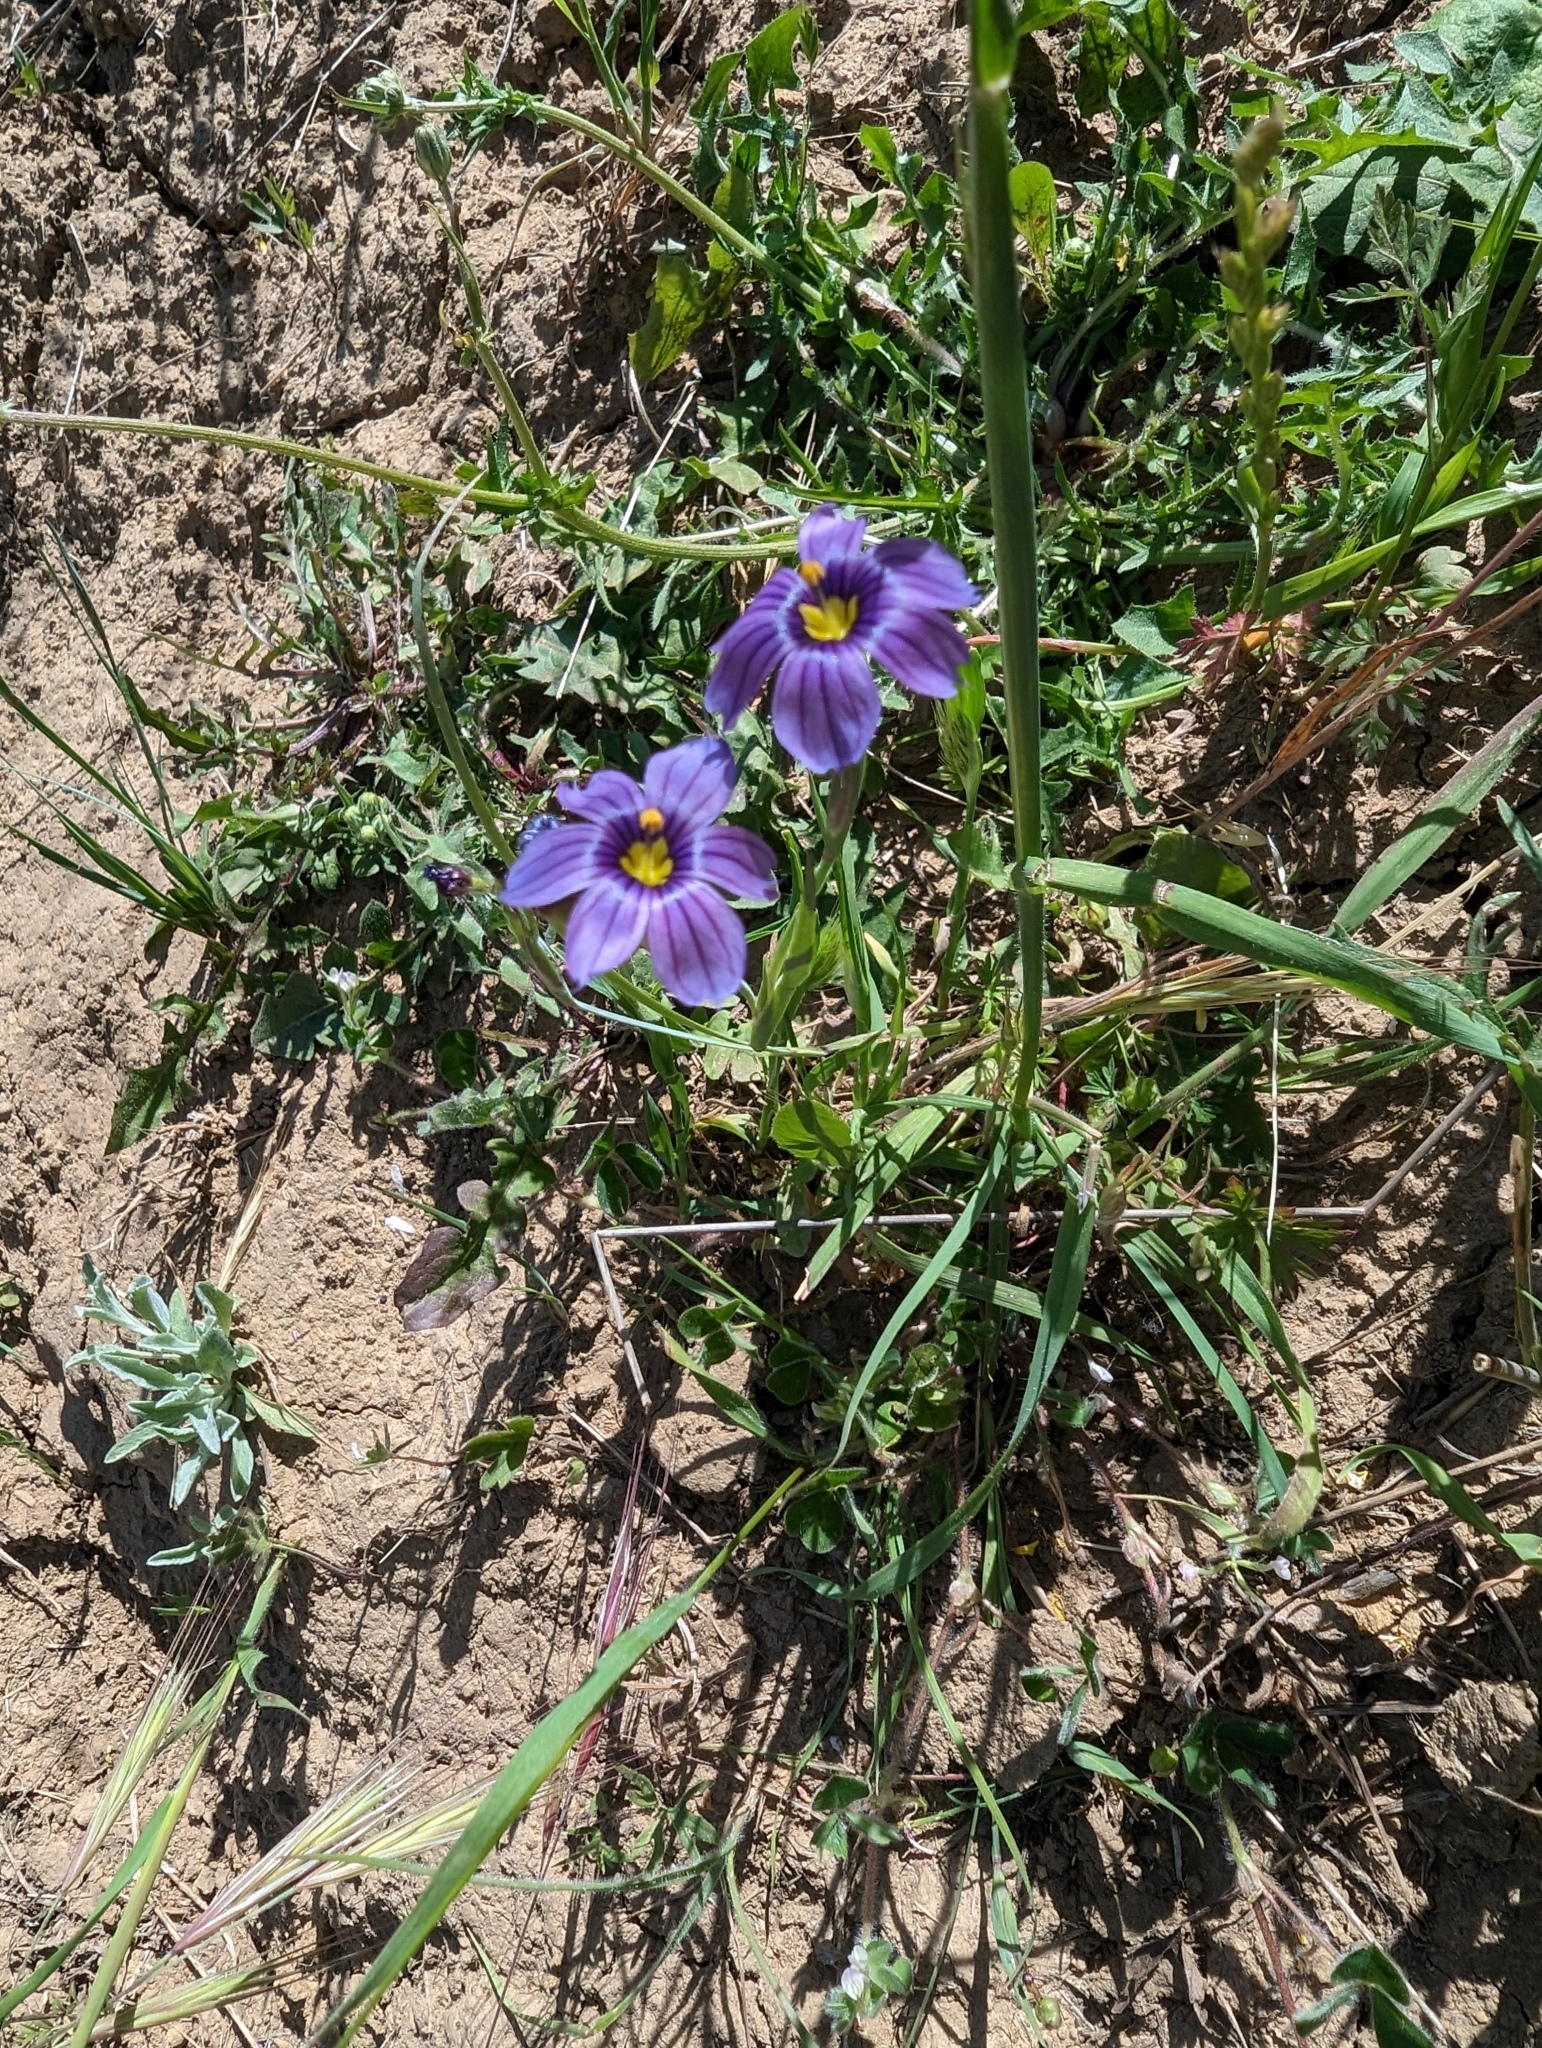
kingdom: Plantae
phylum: Tracheophyta
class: Liliopsida
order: Asparagales
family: Iridaceae
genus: Sisyrinchium
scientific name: Sisyrinchium bellum
